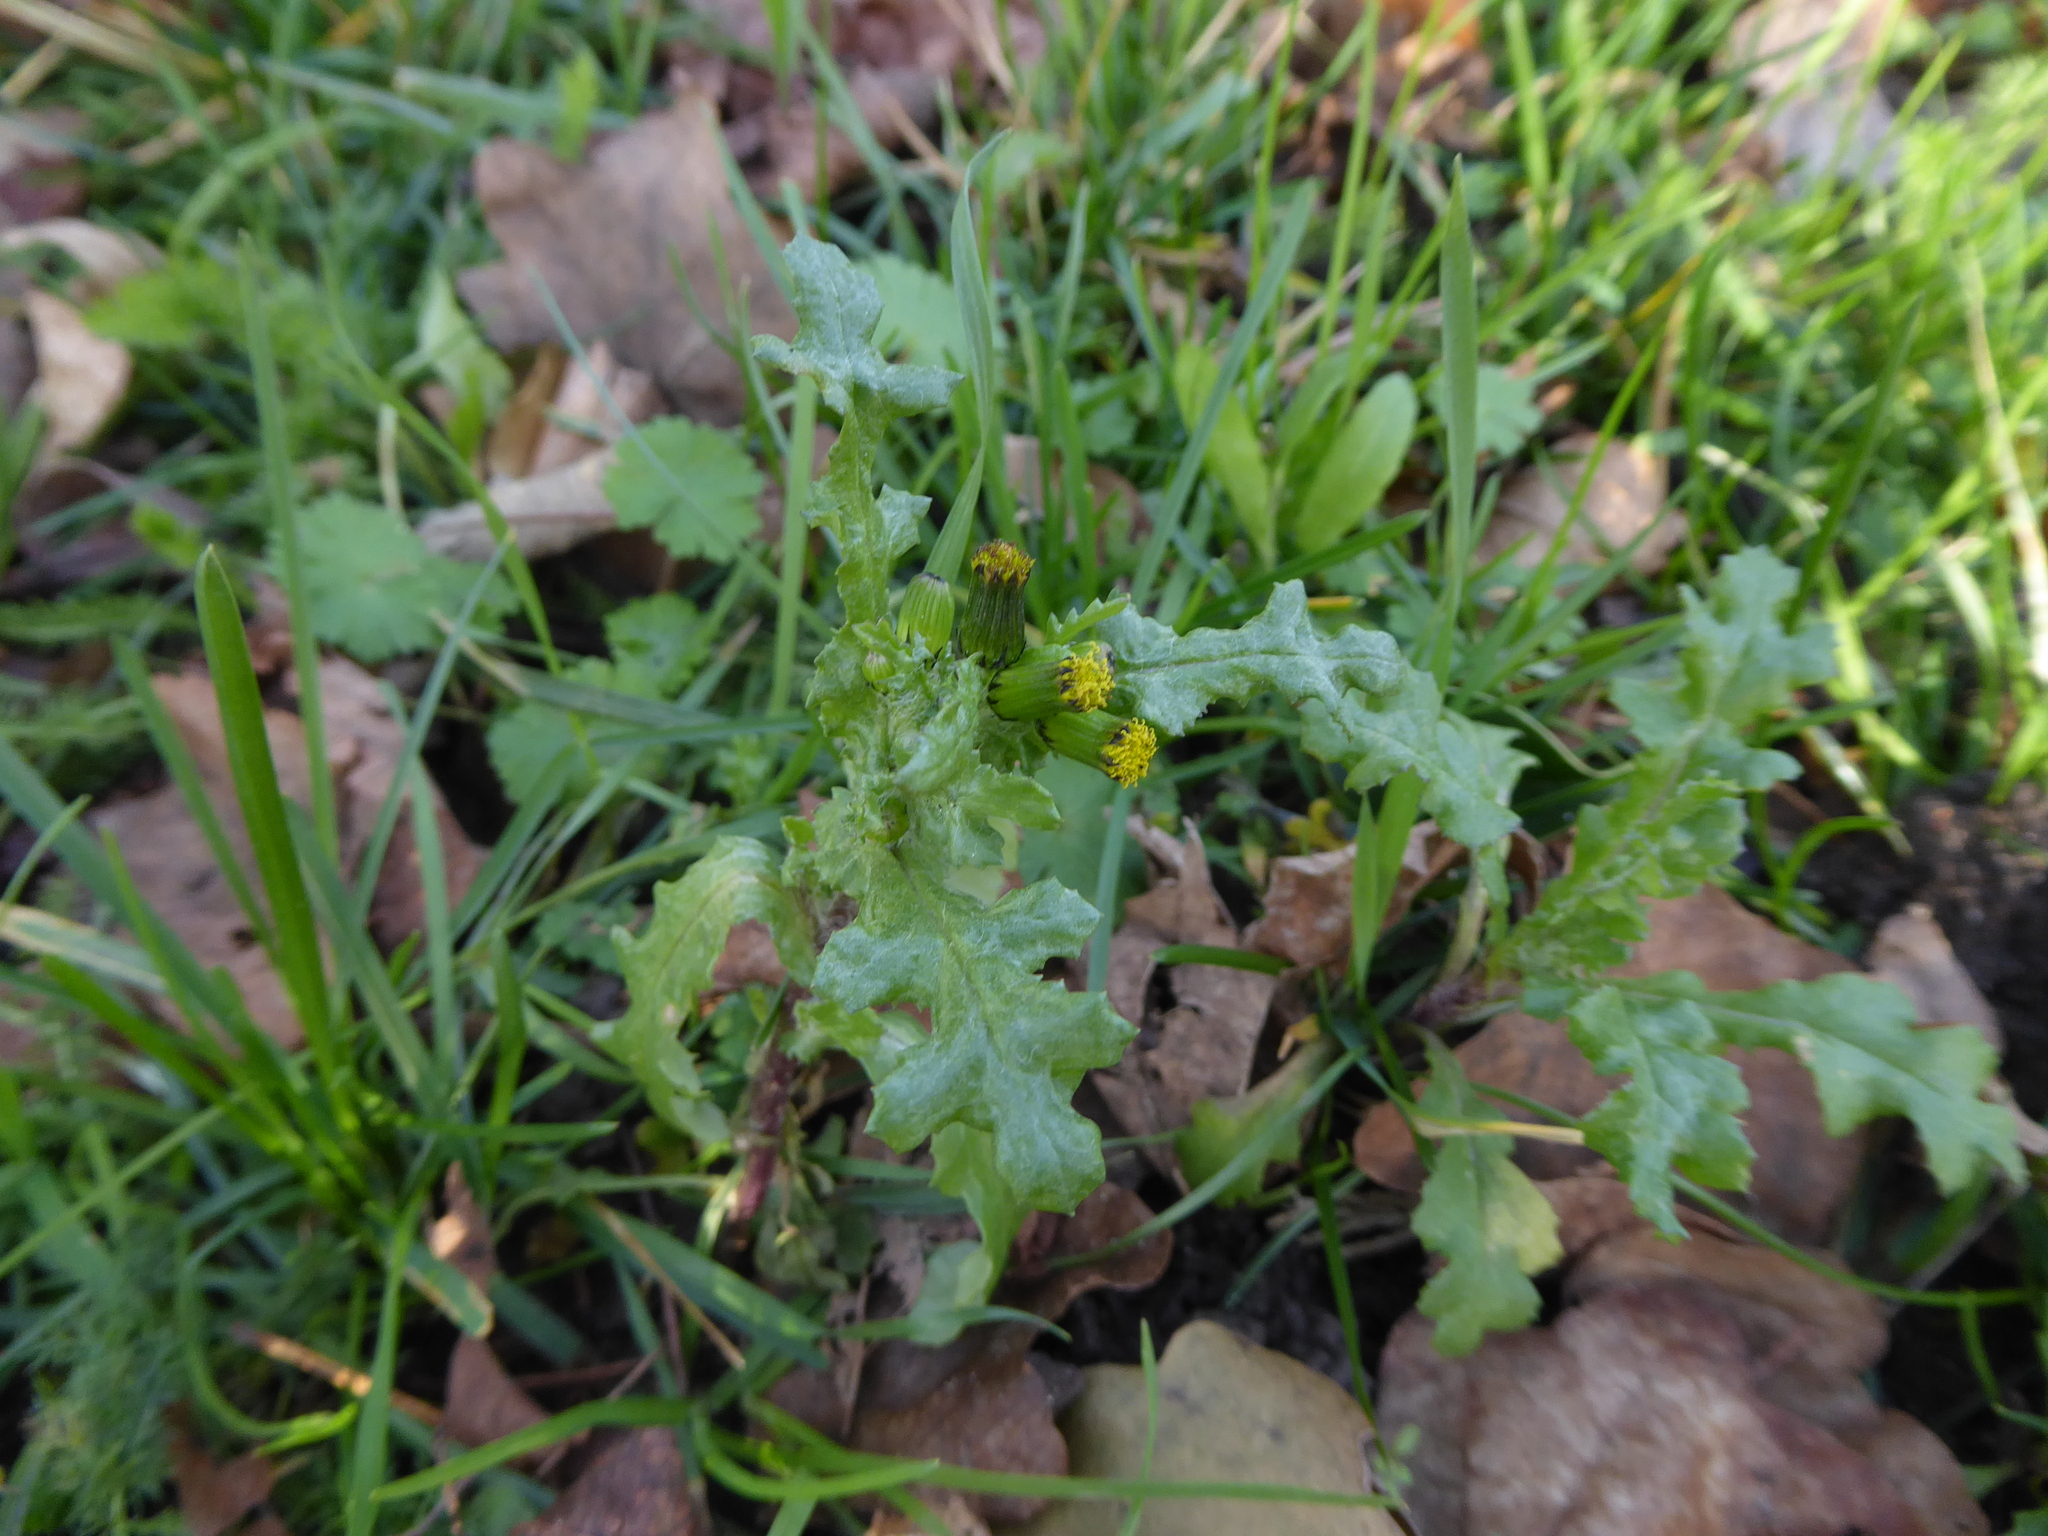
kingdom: Plantae
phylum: Tracheophyta
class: Magnoliopsida
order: Asterales
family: Asteraceae
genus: Senecio
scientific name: Senecio vulgaris
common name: Old-man-in-the-spring
